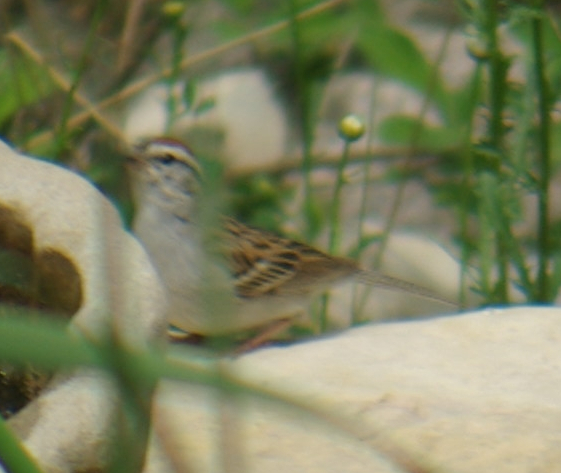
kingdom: Animalia
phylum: Chordata
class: Aves
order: Passeriformes
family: Passerellidae
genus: Spizella
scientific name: Spizella passerina
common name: Chipping sparrow
